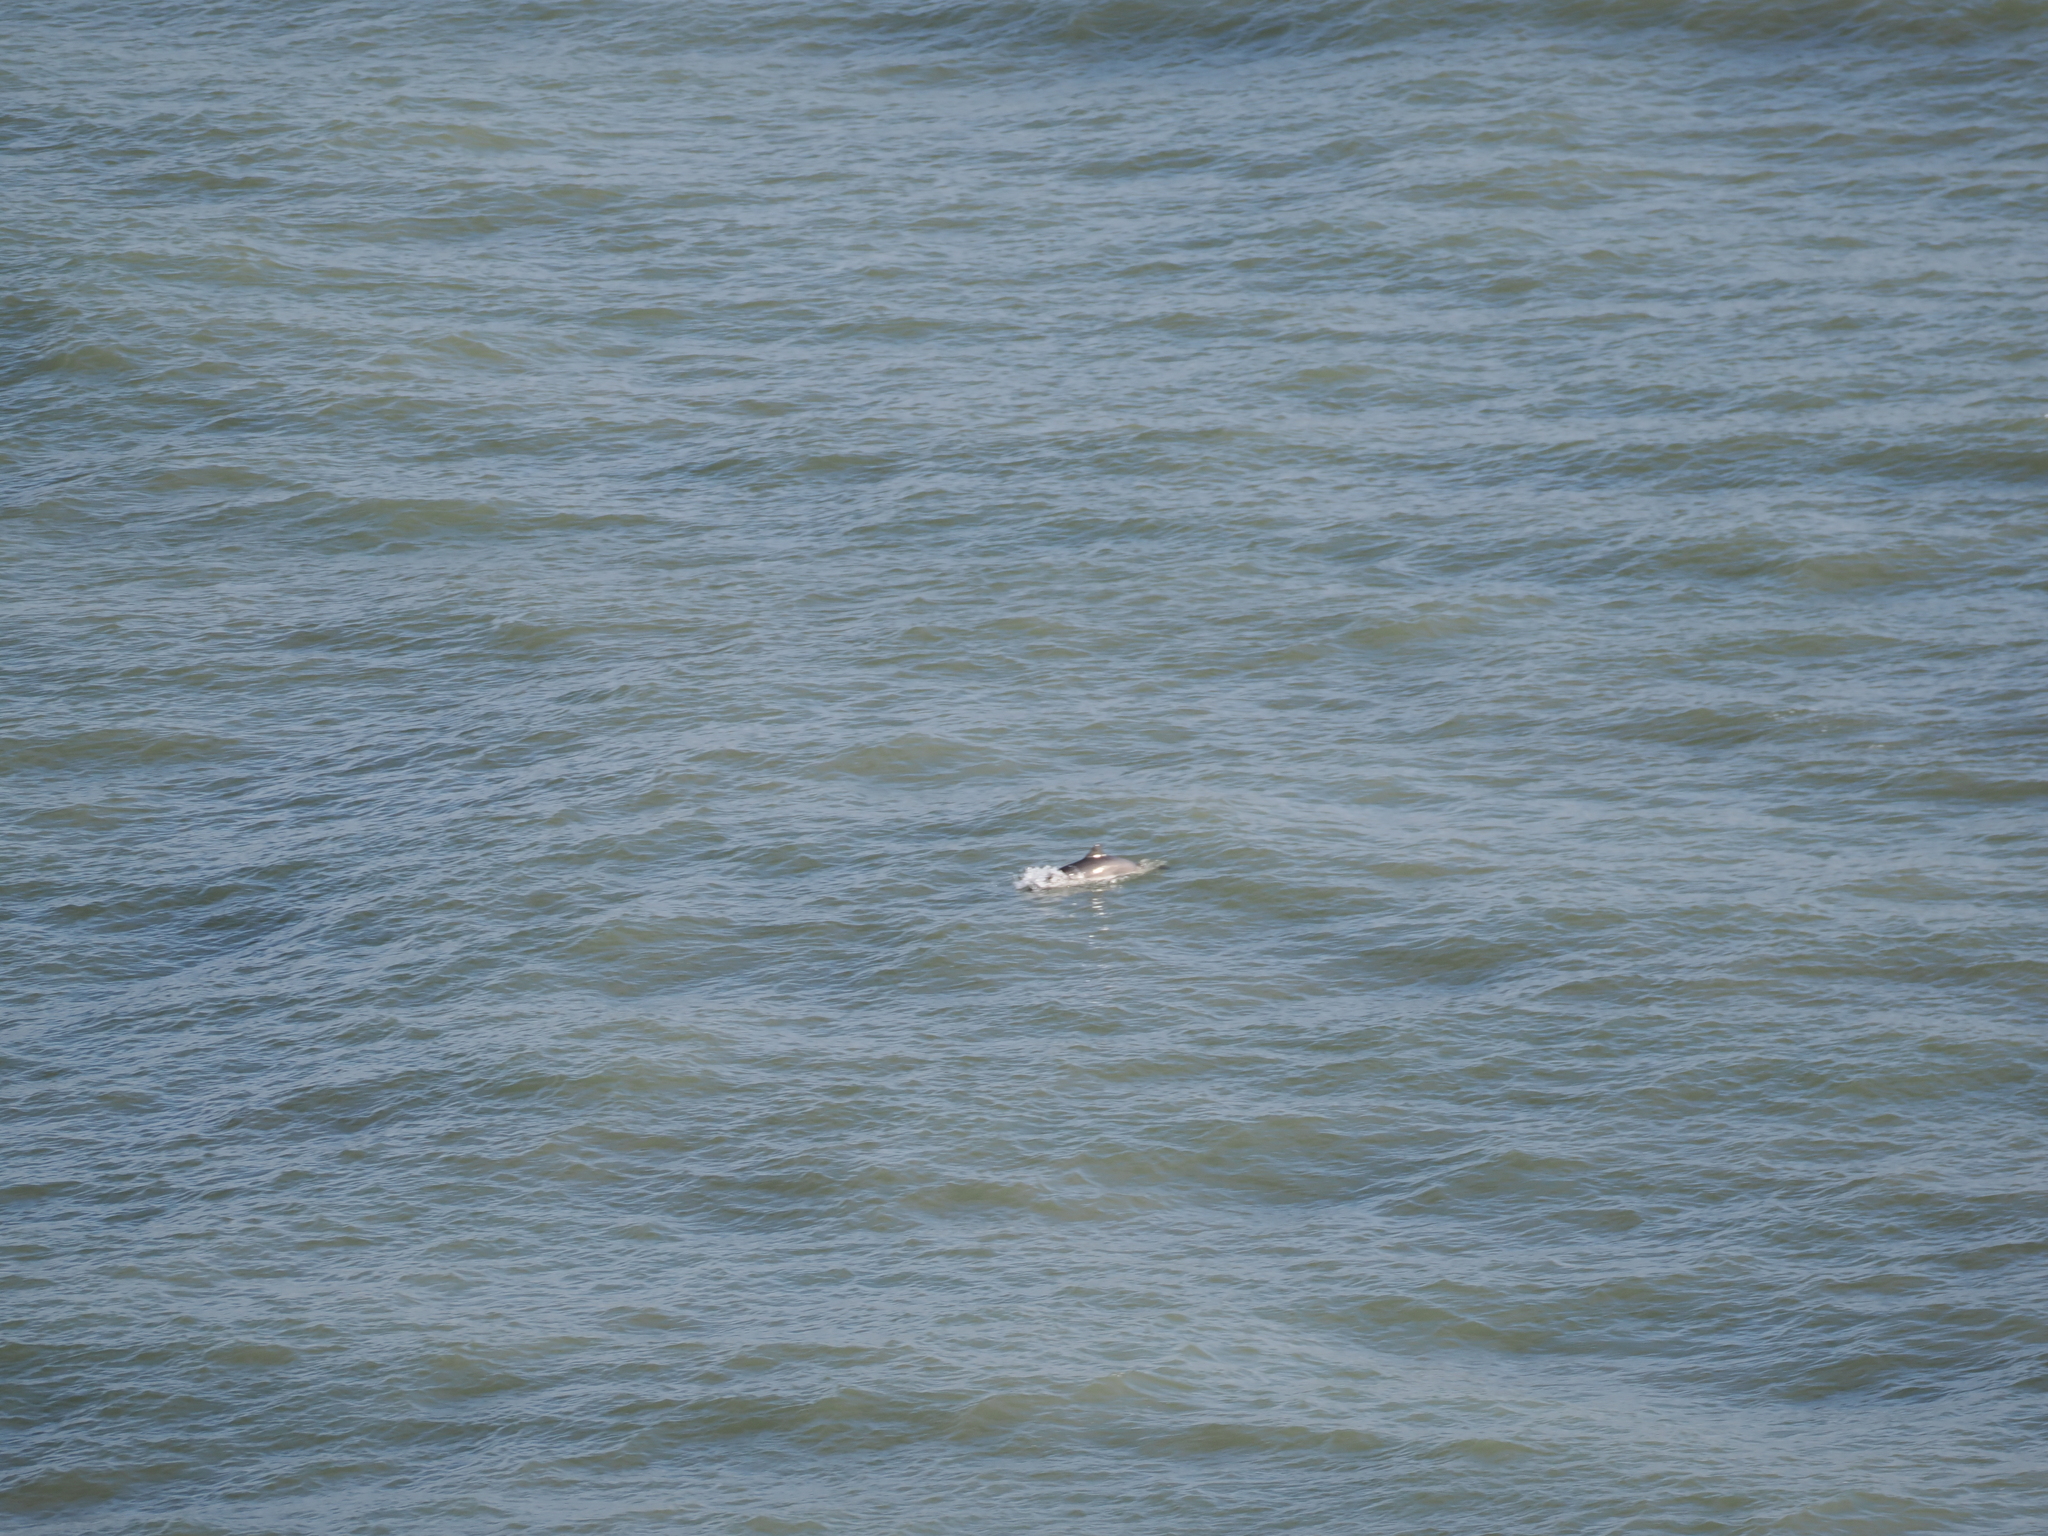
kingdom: Animalia
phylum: Chordata
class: Mammalia
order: Cetacea
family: Phocoenidae
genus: Phocoena
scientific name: Phocoena phocoena
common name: Harbor porpoise
